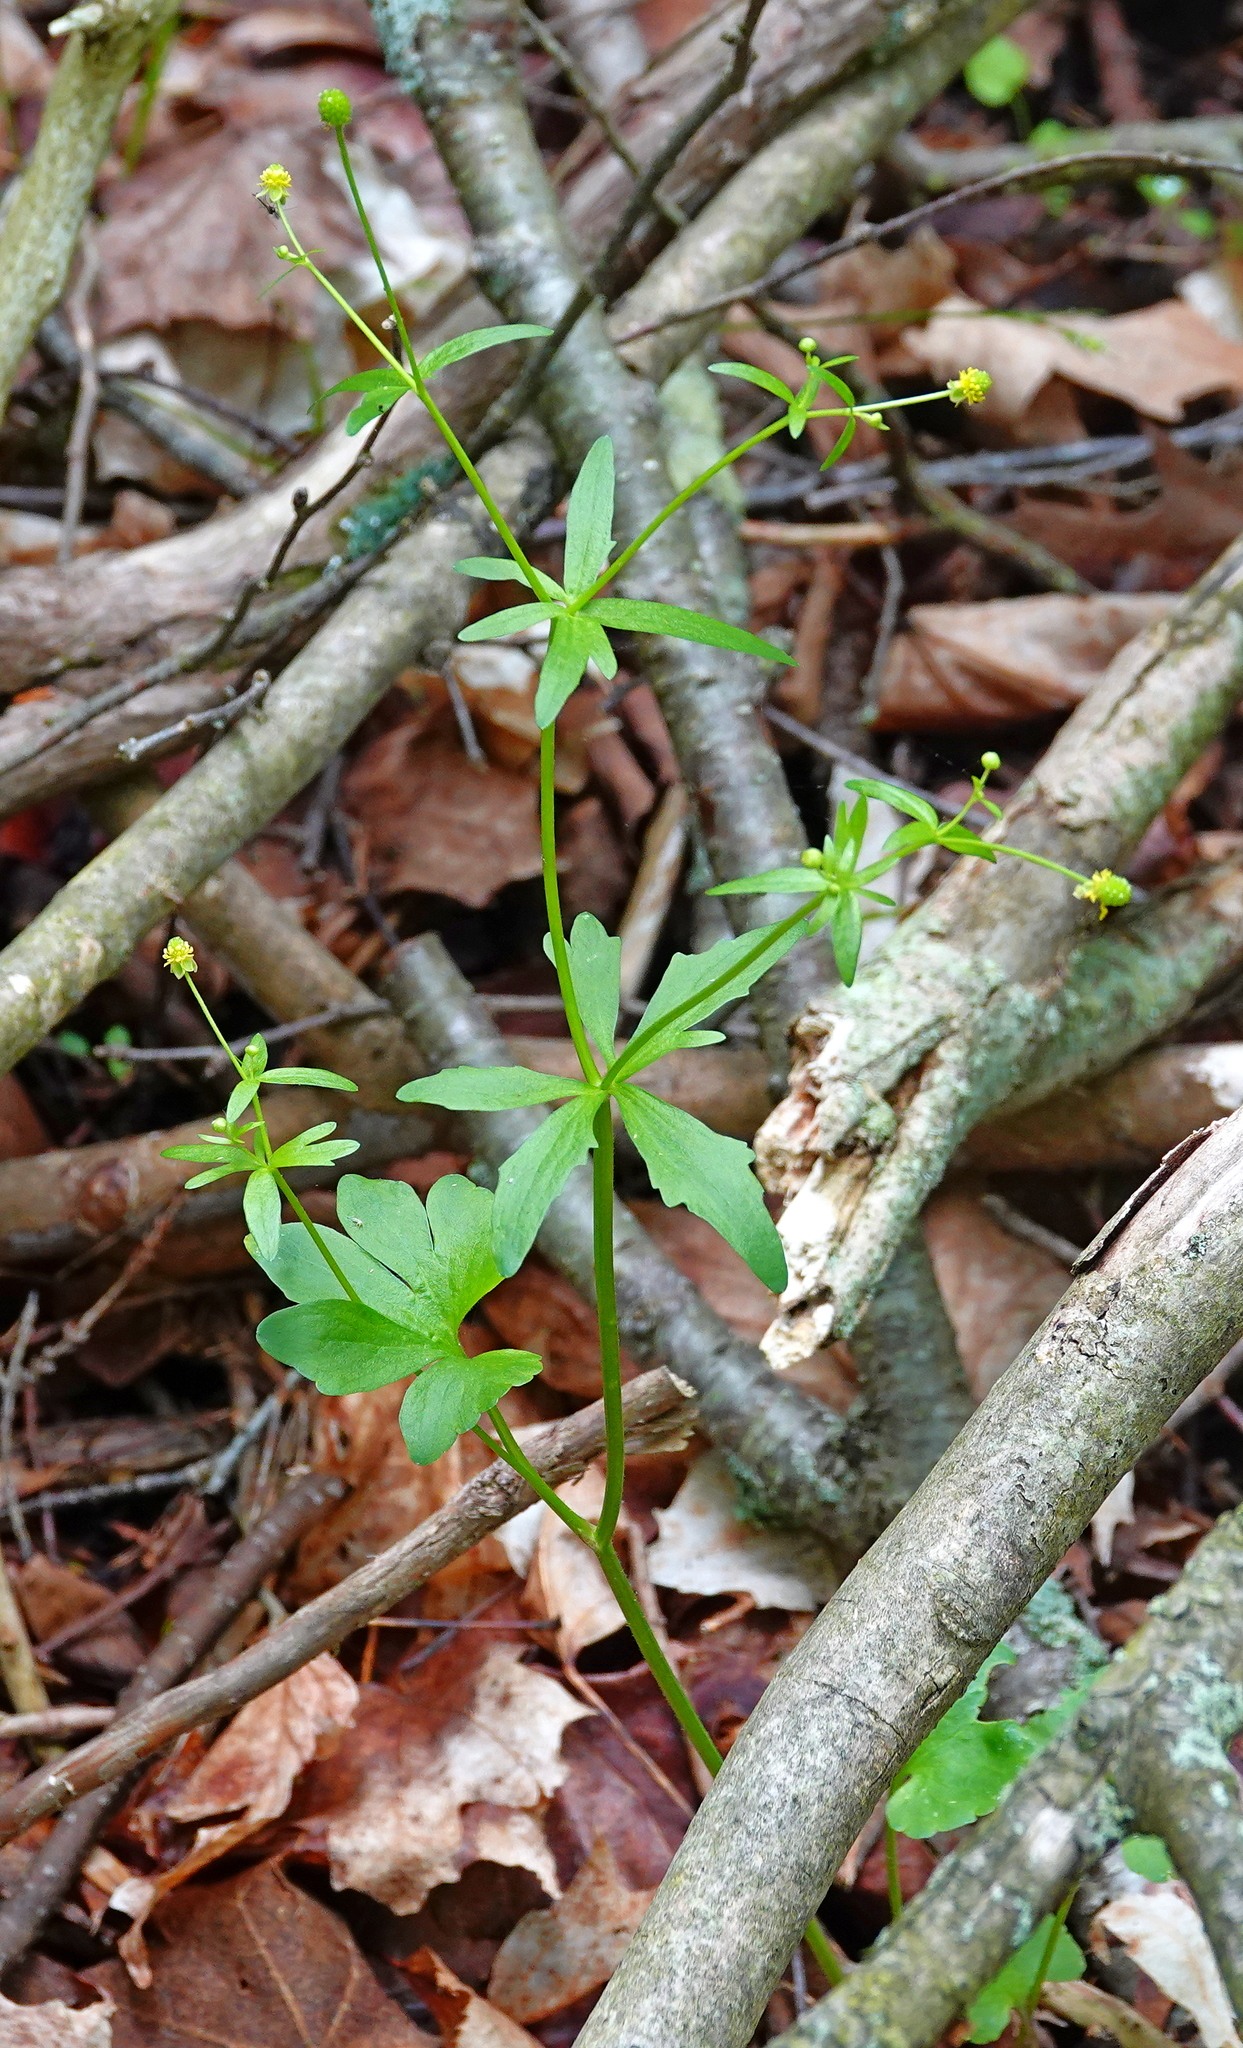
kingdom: Plantae
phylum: Tracheophyta
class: Magnoliopsida
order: Ranunculales
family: Ranunculaceae
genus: Ranunculus
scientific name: Ranunculus abortivus
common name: Early wood buttercup
